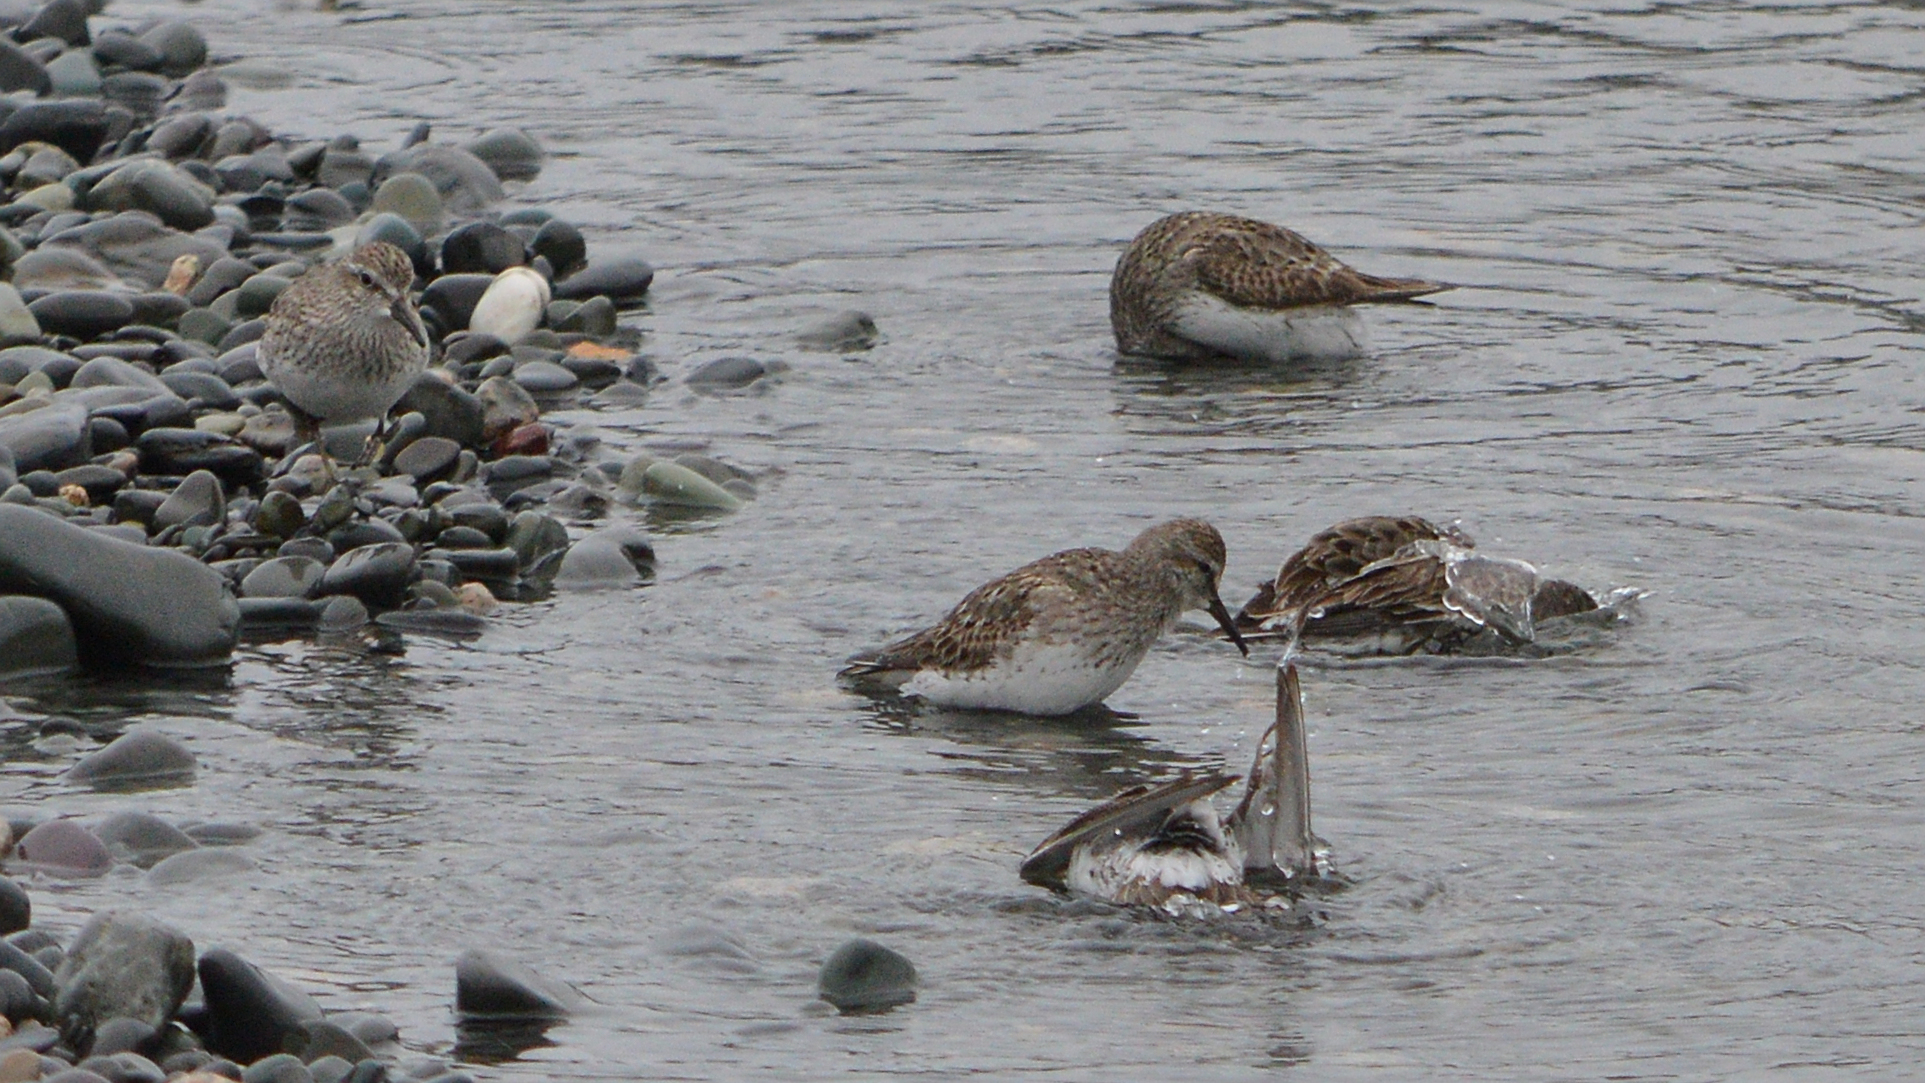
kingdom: Animalia
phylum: Chordata
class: Aves
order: Charadriiformes
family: Scolopacidae
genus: Calidris
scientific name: Calidris minutilla
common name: Least sandpiper
